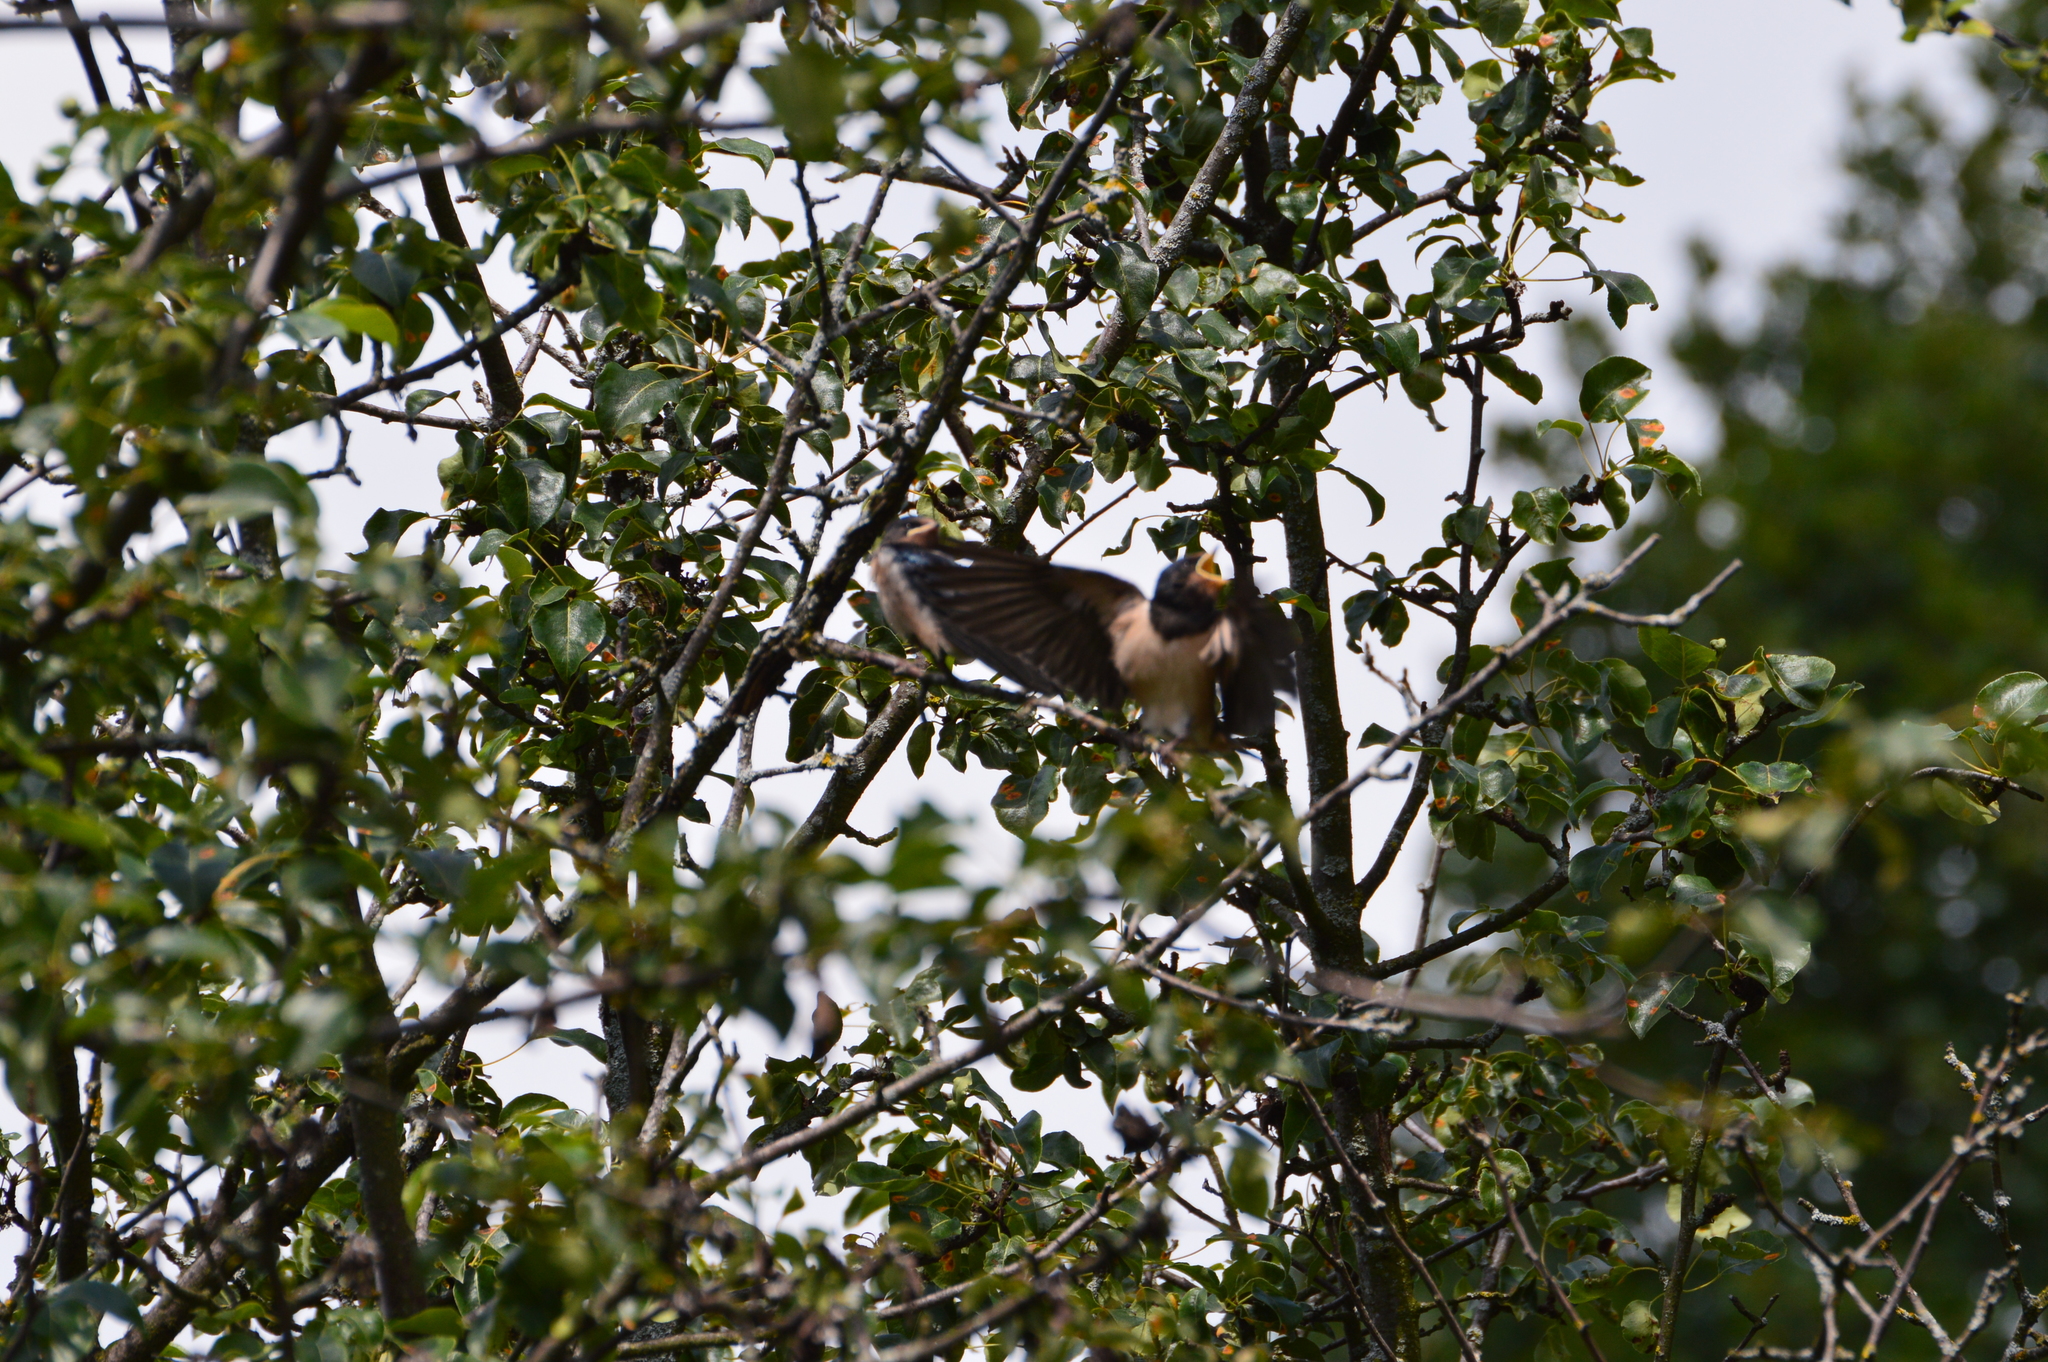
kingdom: Animalia
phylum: Chordata
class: Aves
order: Passeriformes
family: Hirundinidae
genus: Hirundo
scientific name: Hirundo rustica
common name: Barn swallow
